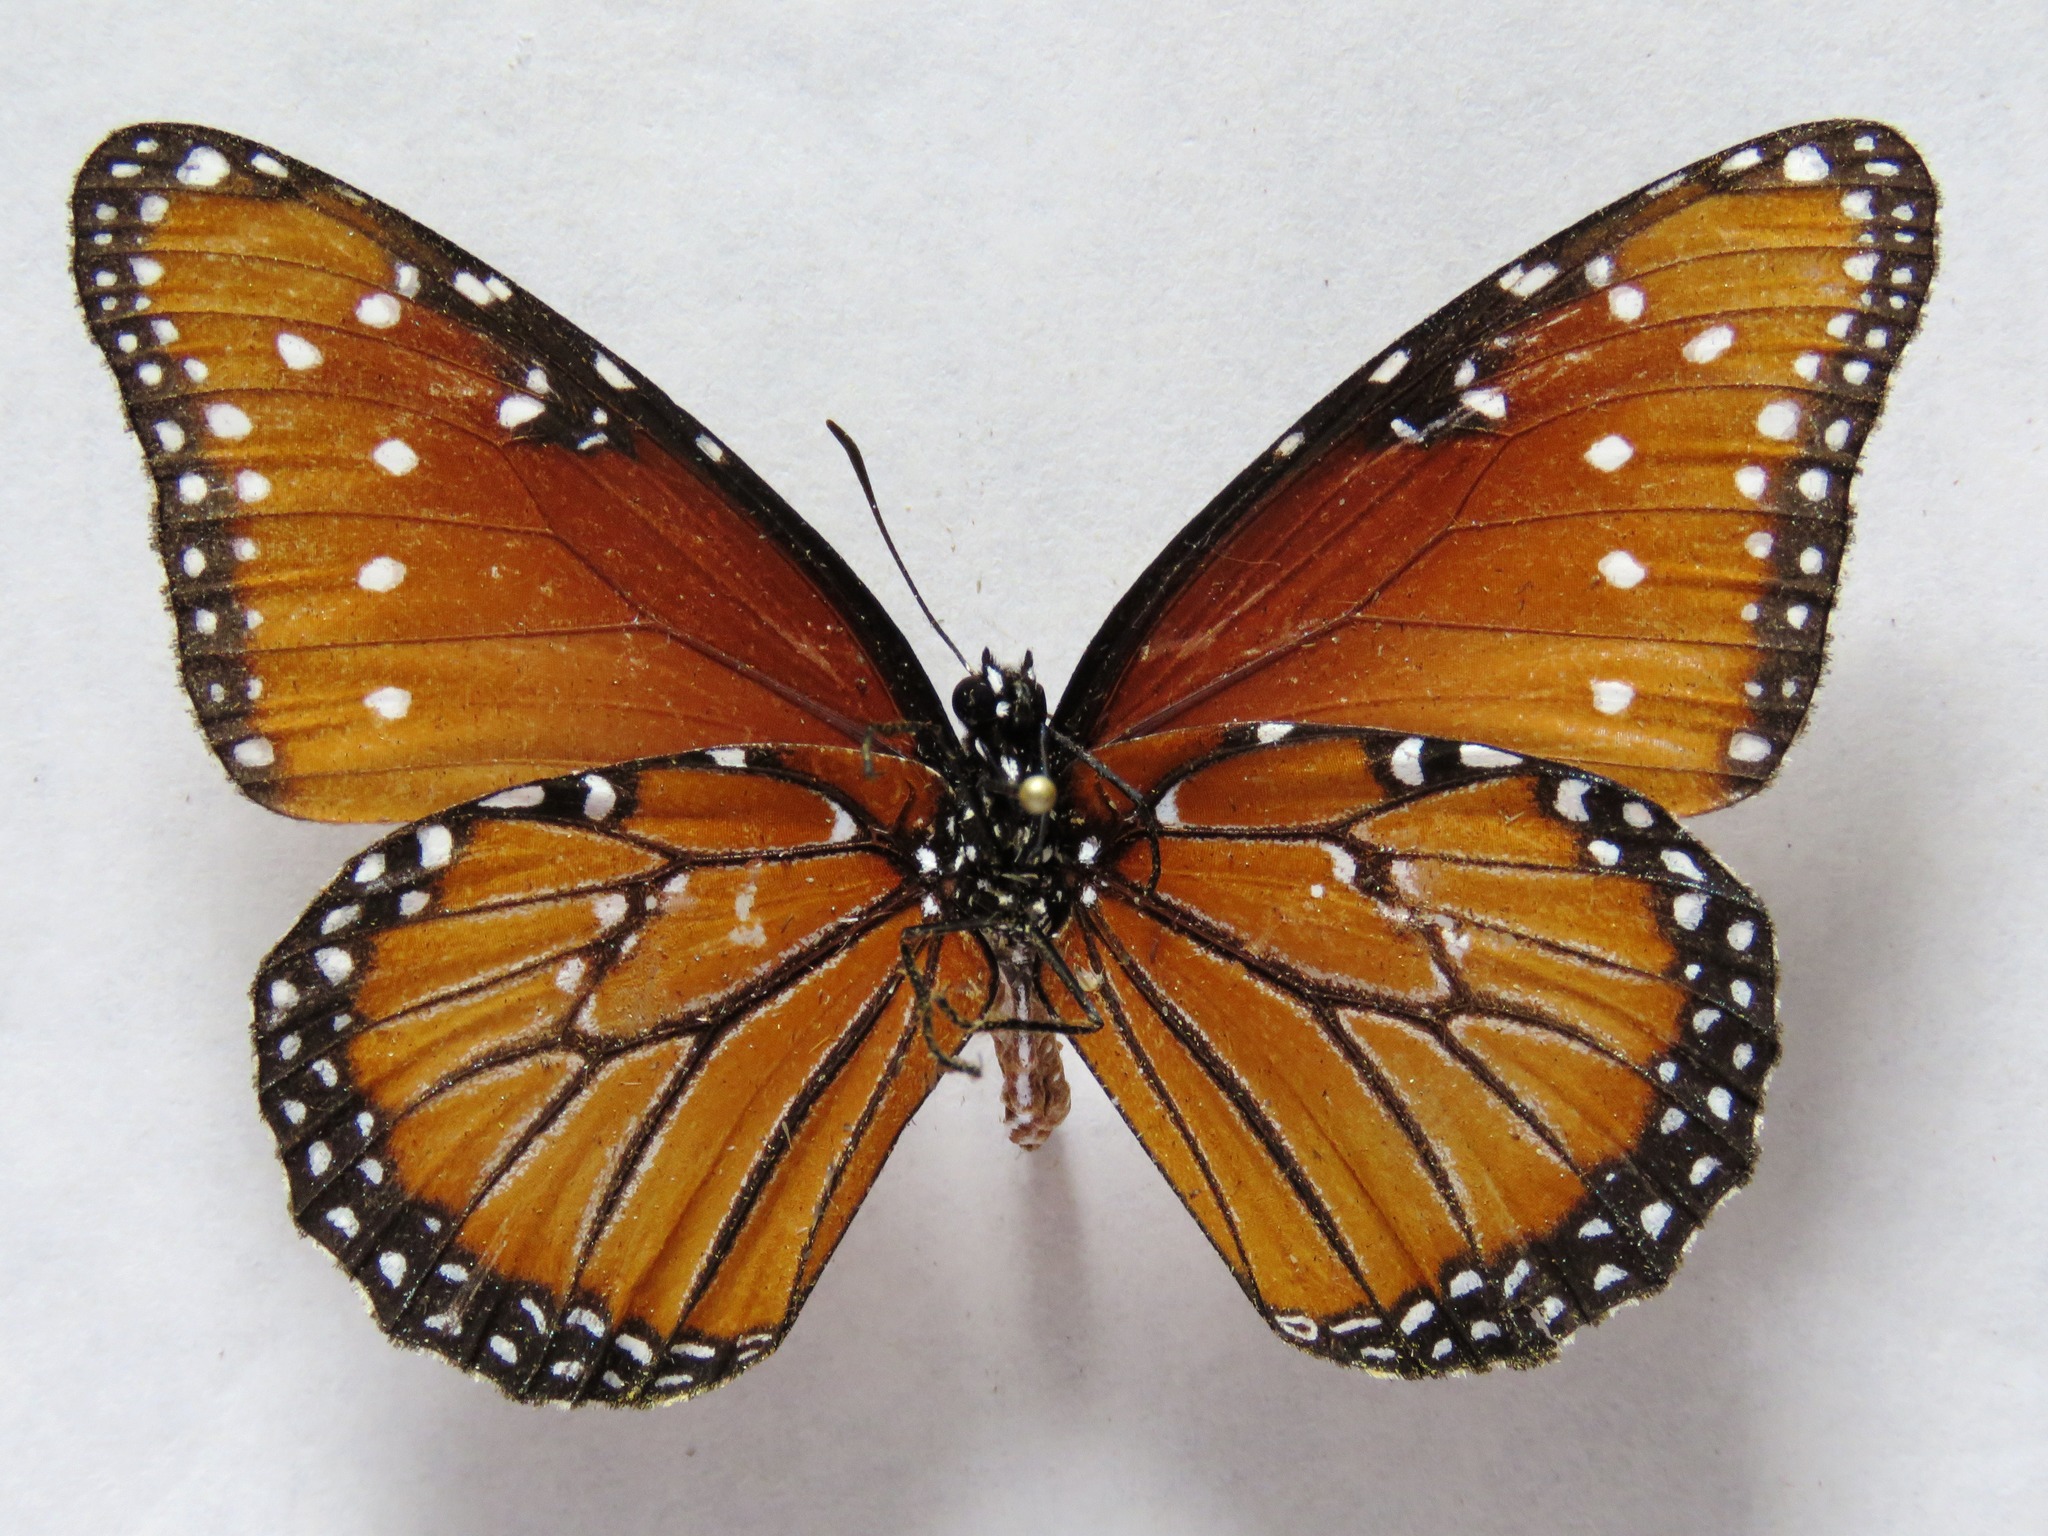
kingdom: Animalia
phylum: Arthropoda
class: Insecta
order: Lepidoptera
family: Nymphalidae
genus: Danaus
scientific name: Danaus gilippus
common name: Queen
